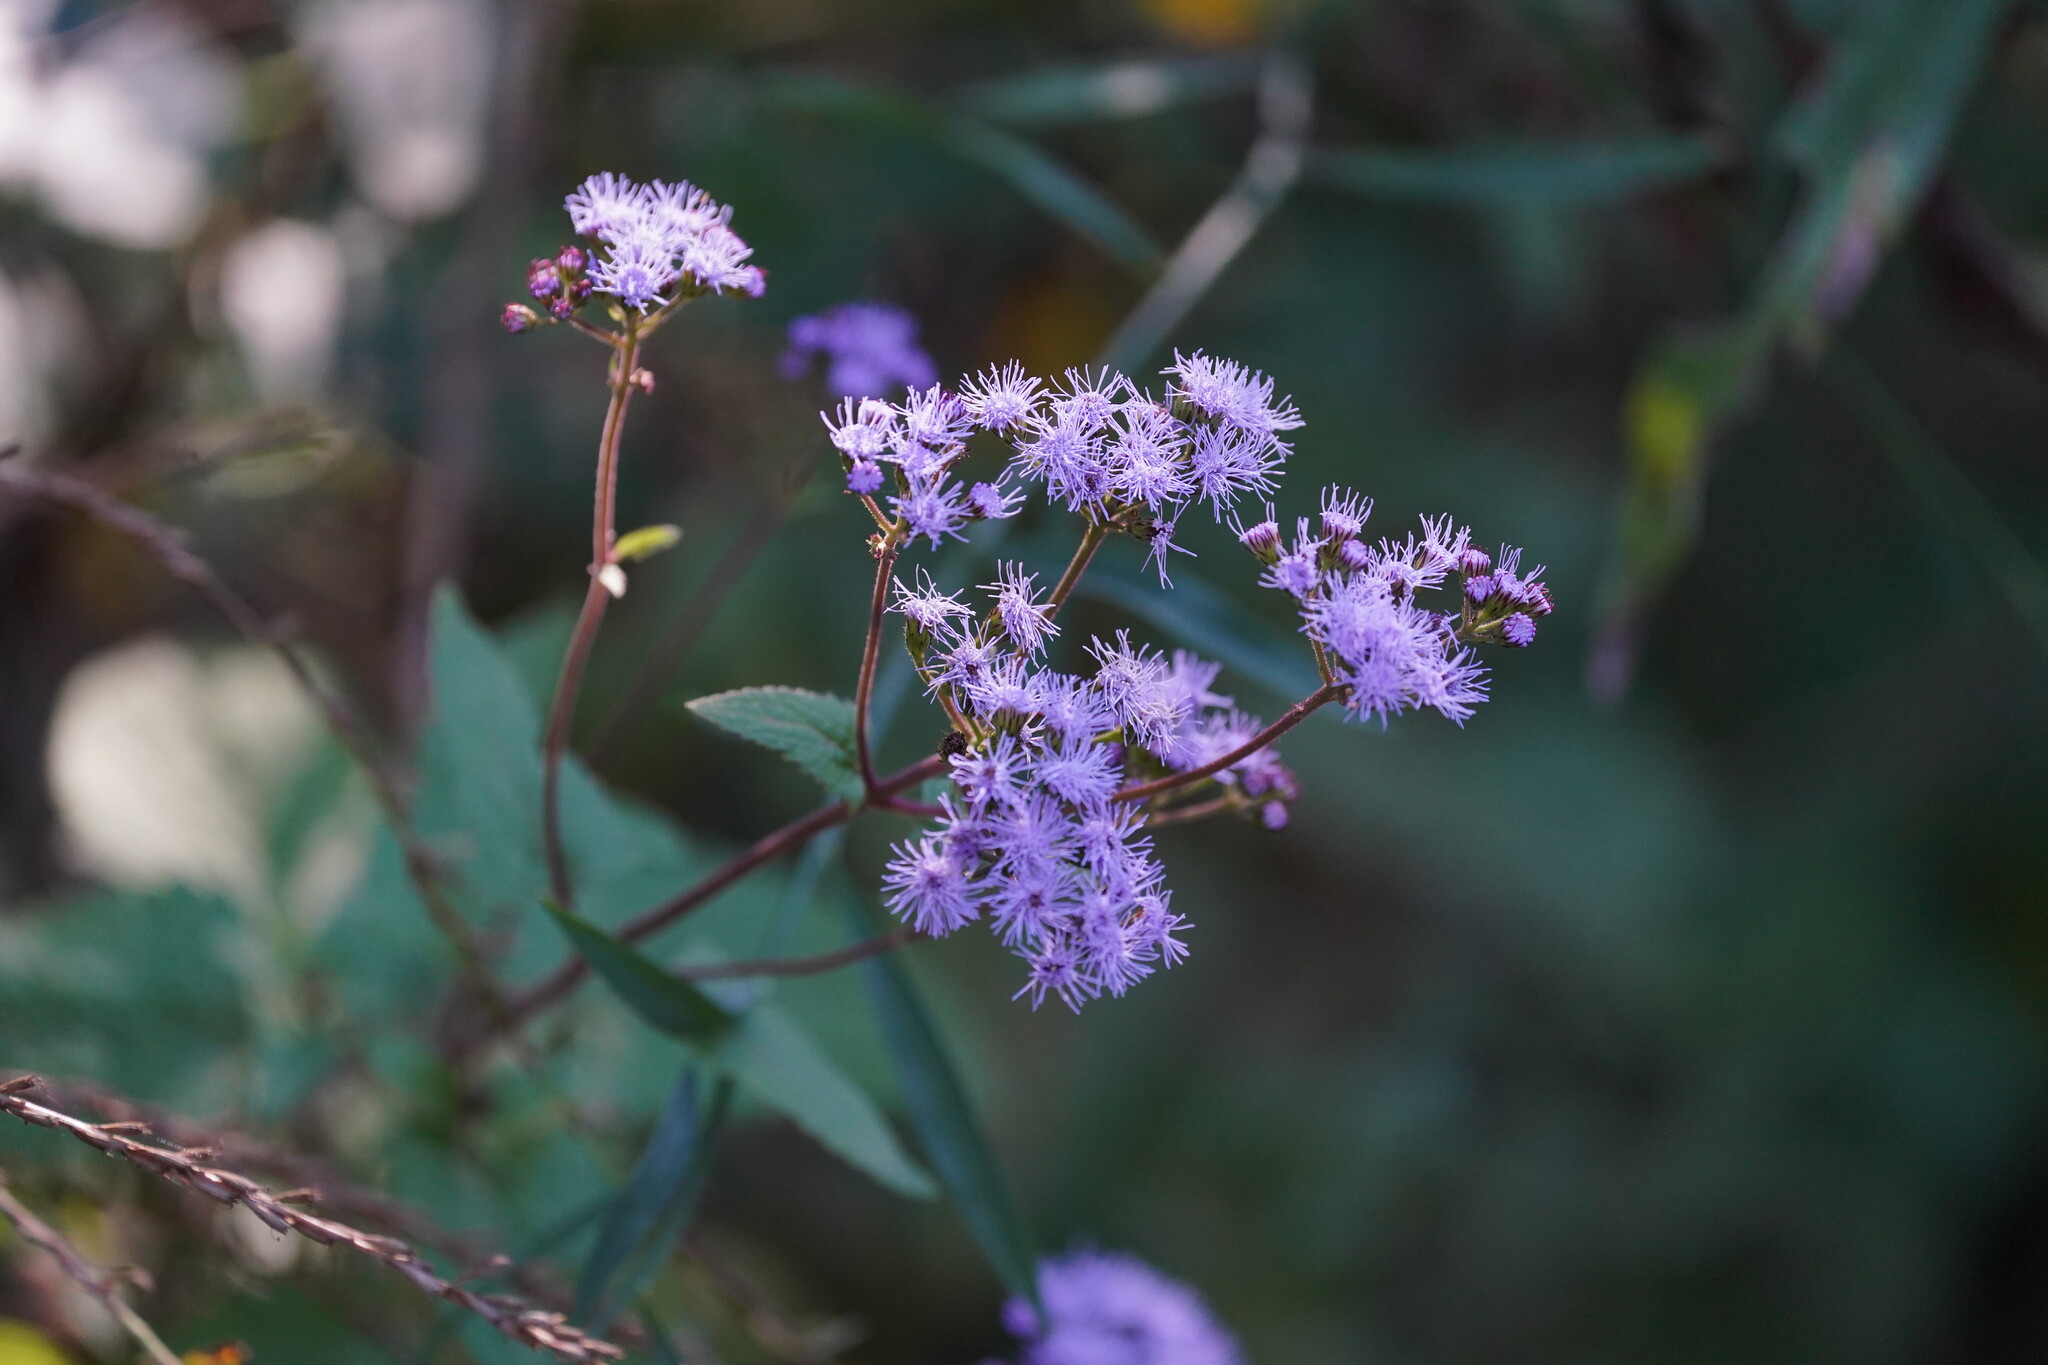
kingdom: Plantae
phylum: Tracheophyta
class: Magnoliopsida
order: Asterales
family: Asteraceae
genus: Conoclinium
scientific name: Conoclinium coelestinum
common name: Blue mistflower
